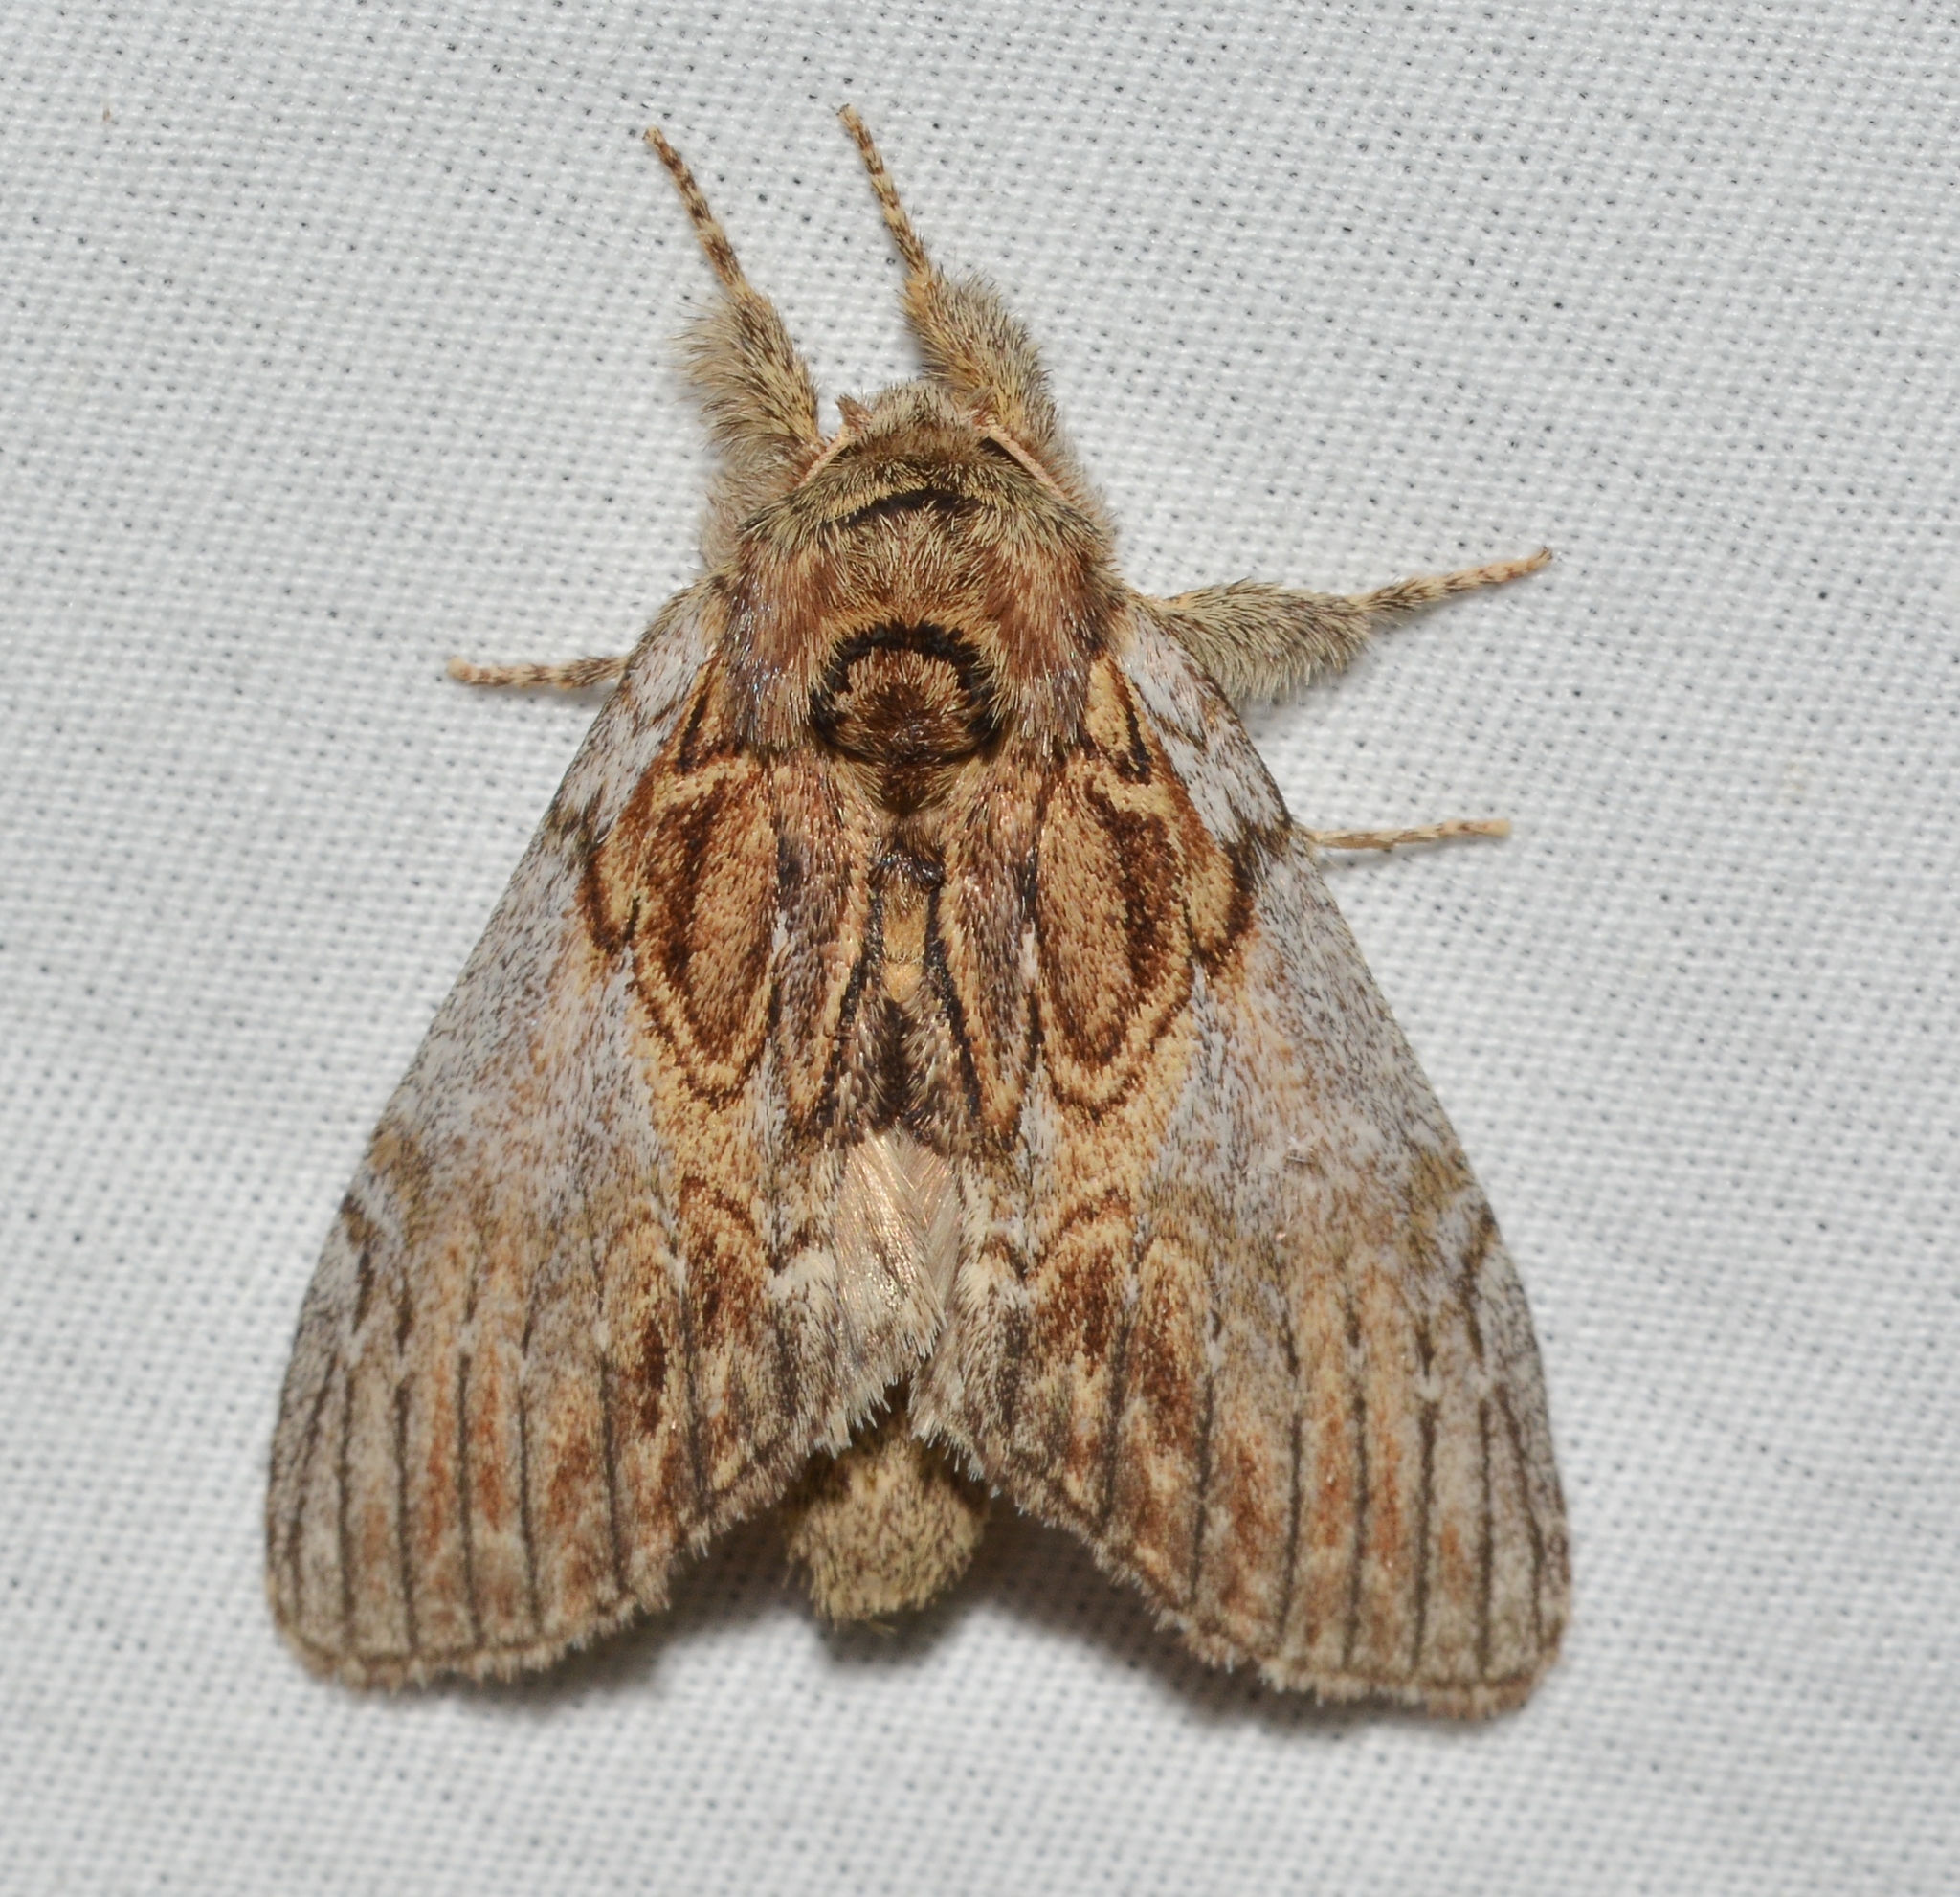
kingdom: Animalia
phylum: Arthropoda
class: Insecta
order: Lepidoptera
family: Notodontidae
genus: Peridea
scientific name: Peridea basitriens
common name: Oval-based prominent
